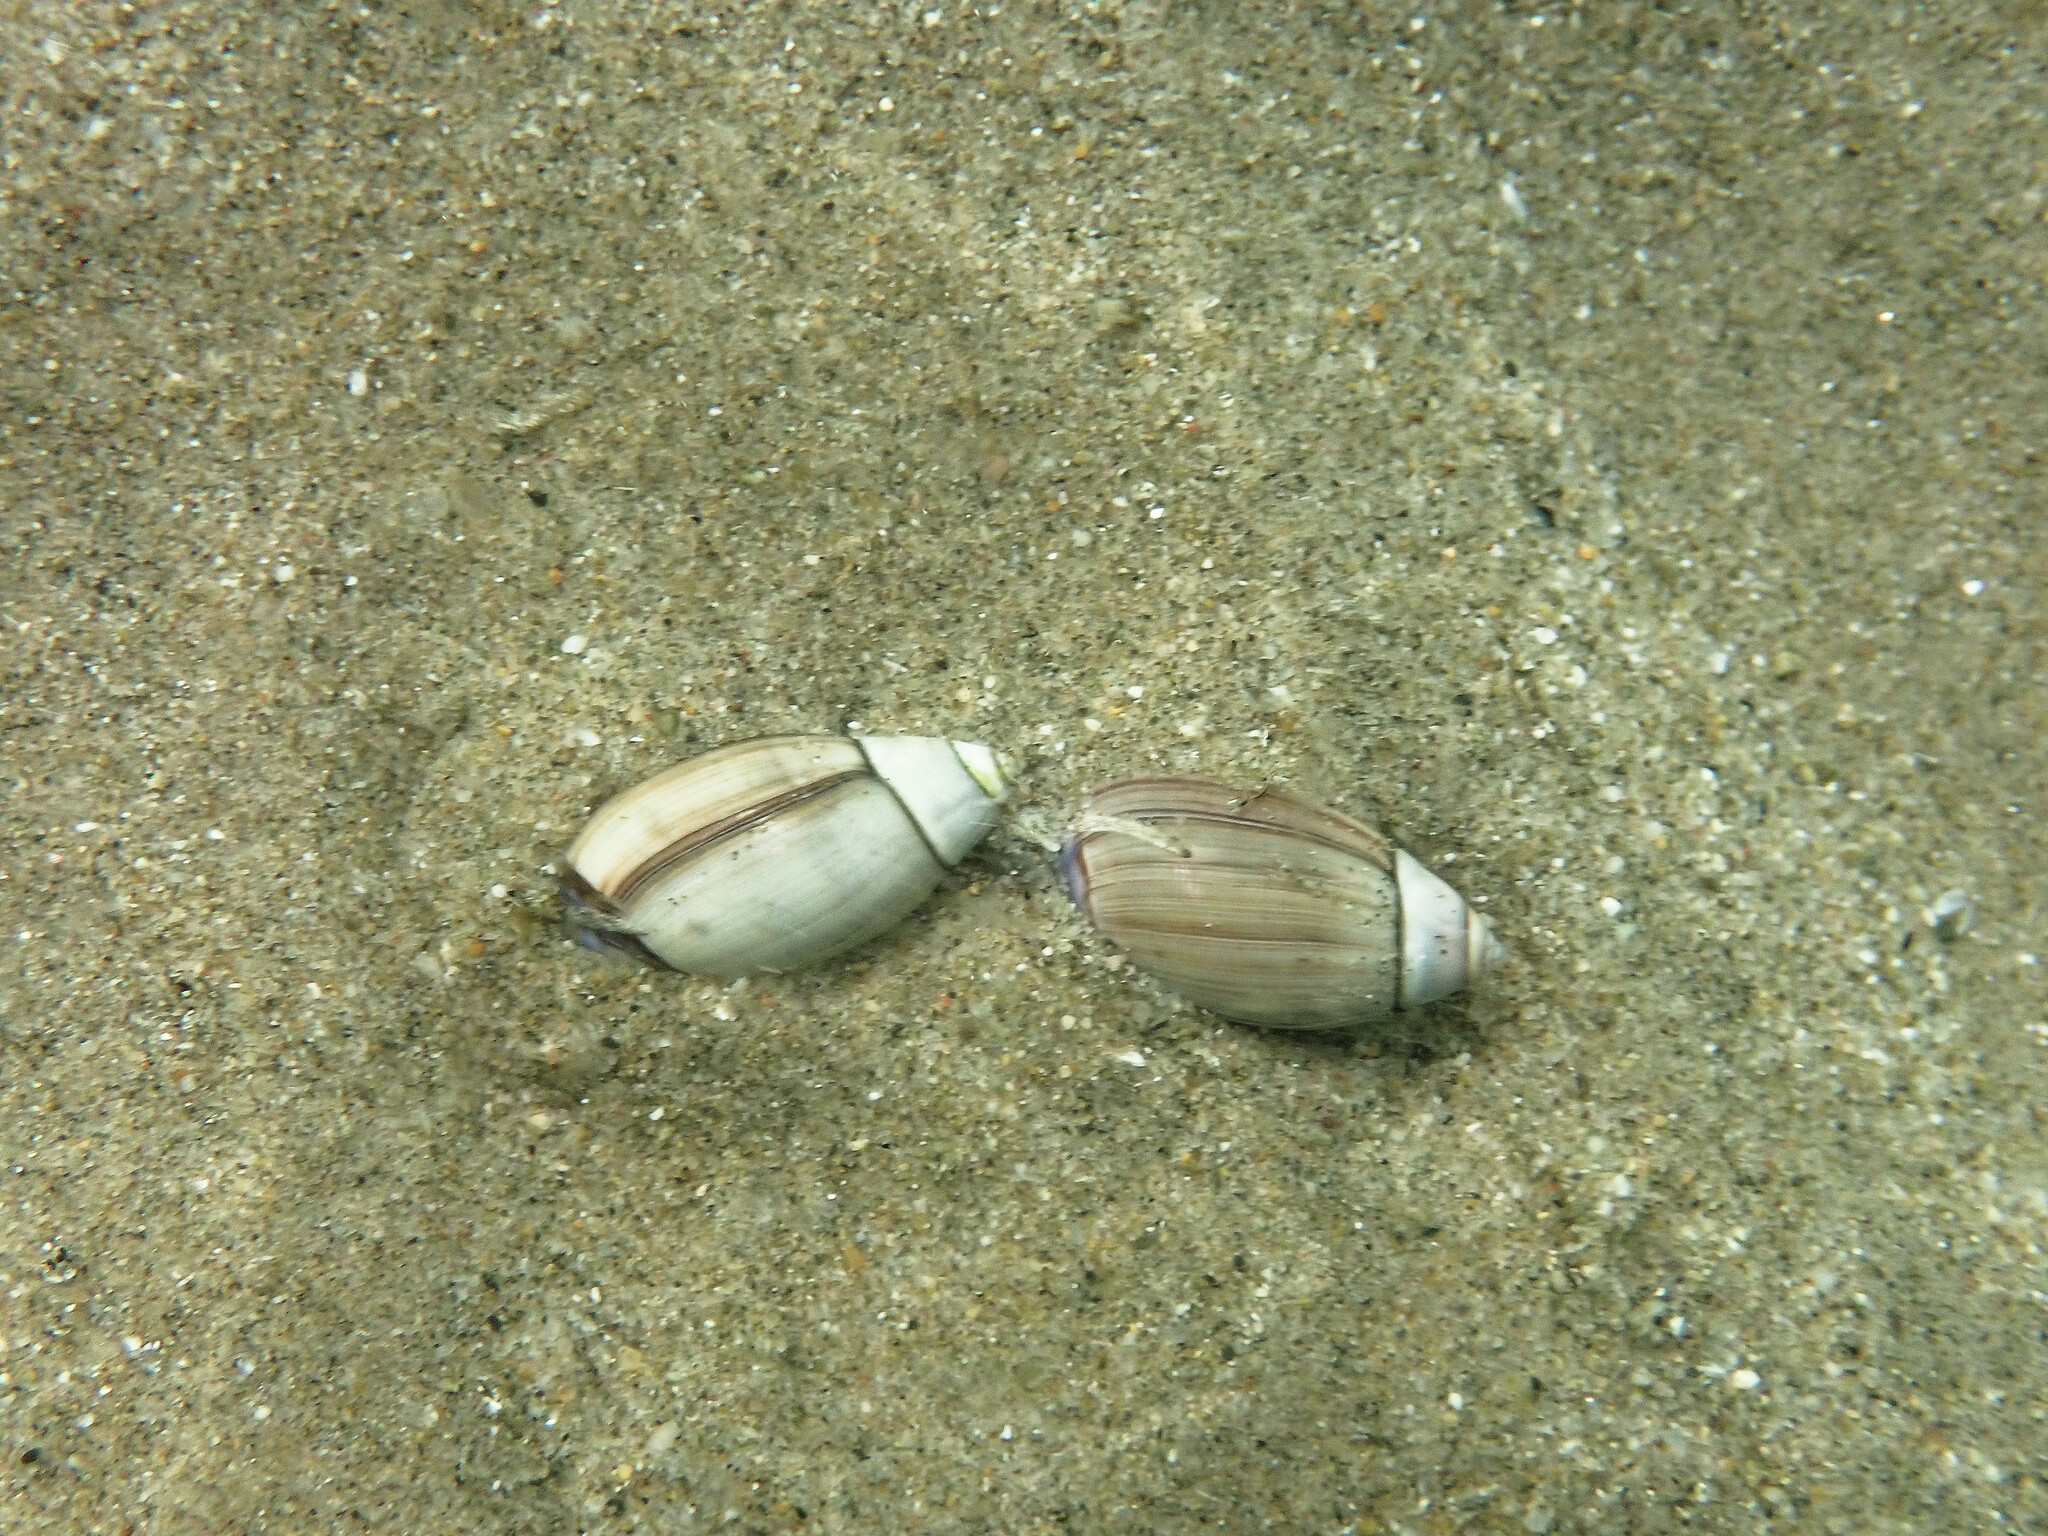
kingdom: Animalia
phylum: Mollusca
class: Gastropoda
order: Neogastropoda
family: Olividae
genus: Callianax
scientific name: Callianax biplicata
